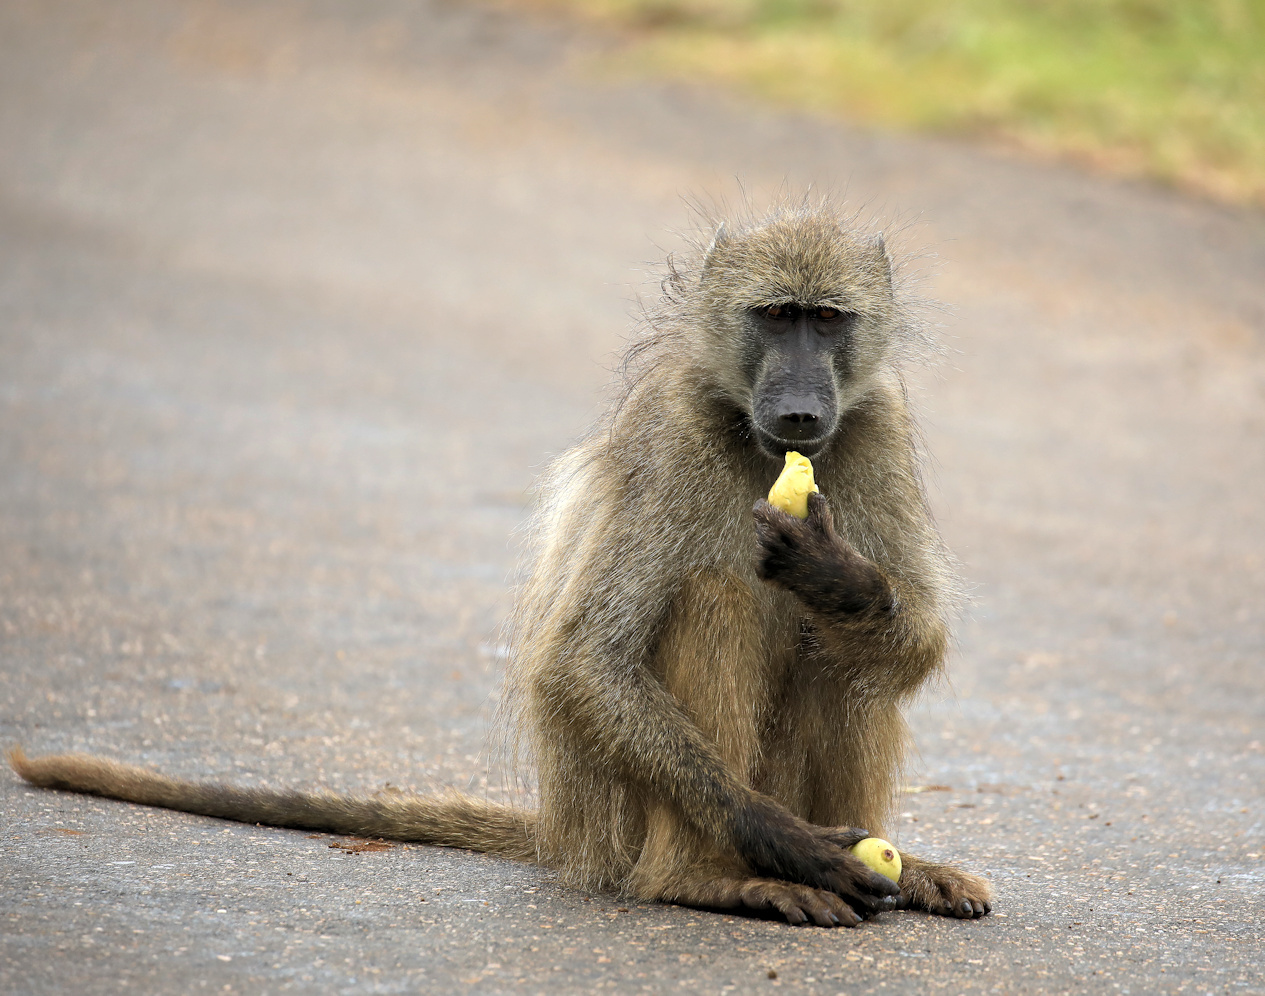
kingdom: Animalia
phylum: Chordata
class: Mammalia
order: Primates
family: Cercopithecidae
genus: Papio
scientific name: Papio ursinus
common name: Chacma baboon
